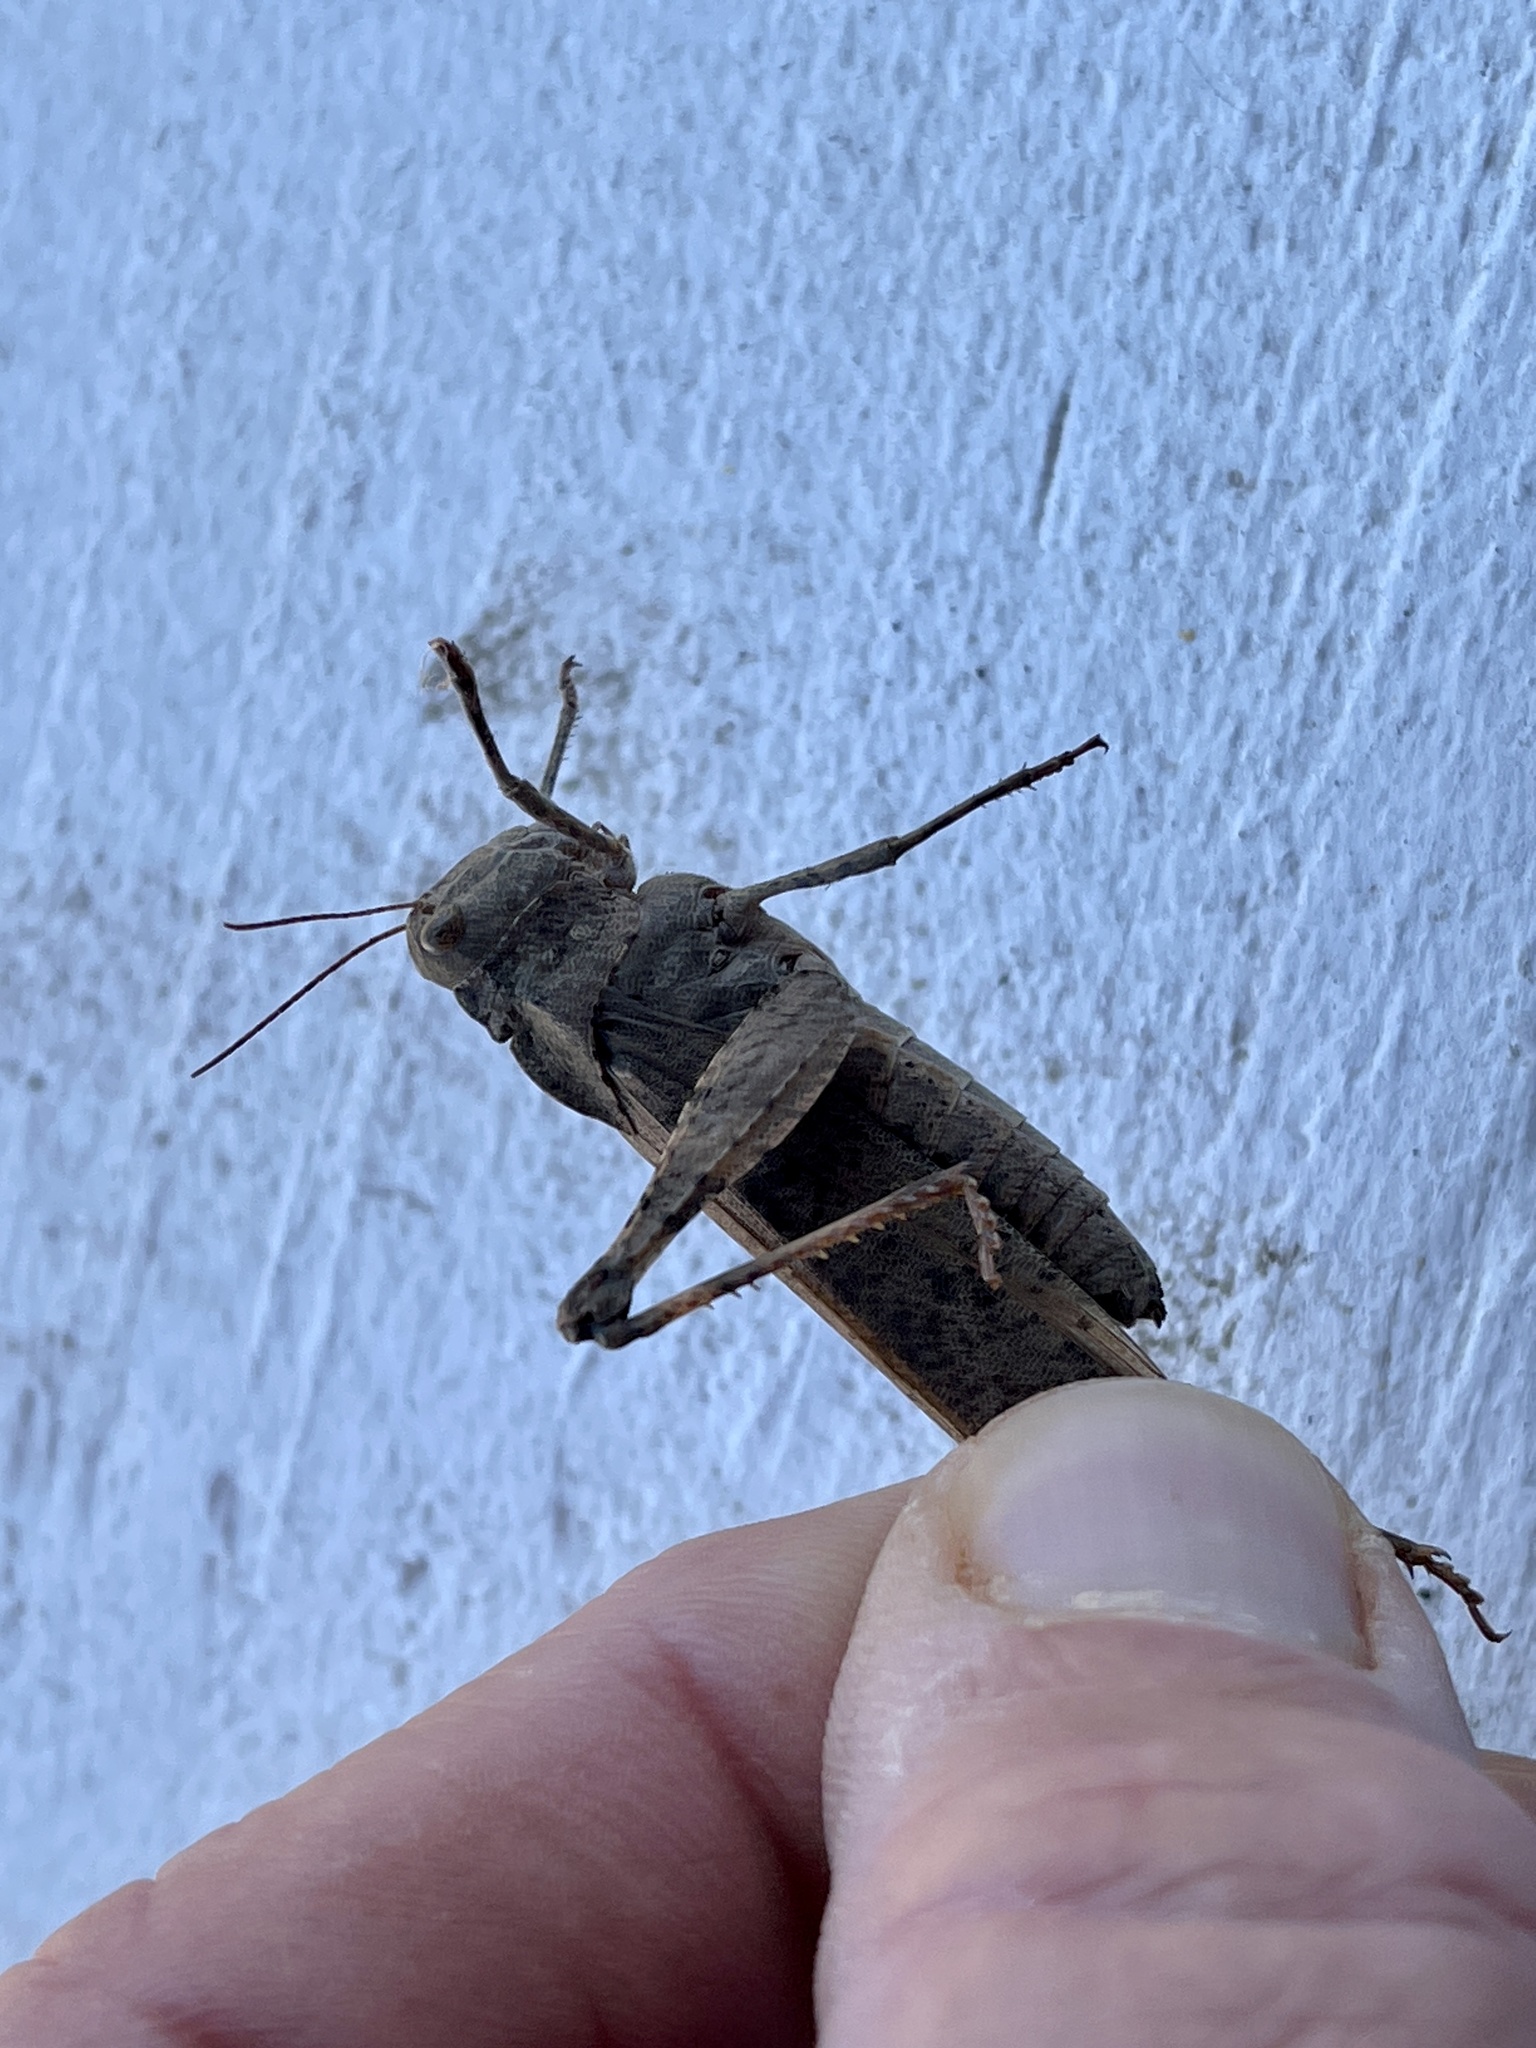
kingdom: Animalia
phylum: Arthropoda
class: Insecta
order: Orthoptera
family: Acrididae
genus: Dissosteira
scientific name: Dissosteira carolina
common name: Carolina grasshopper
